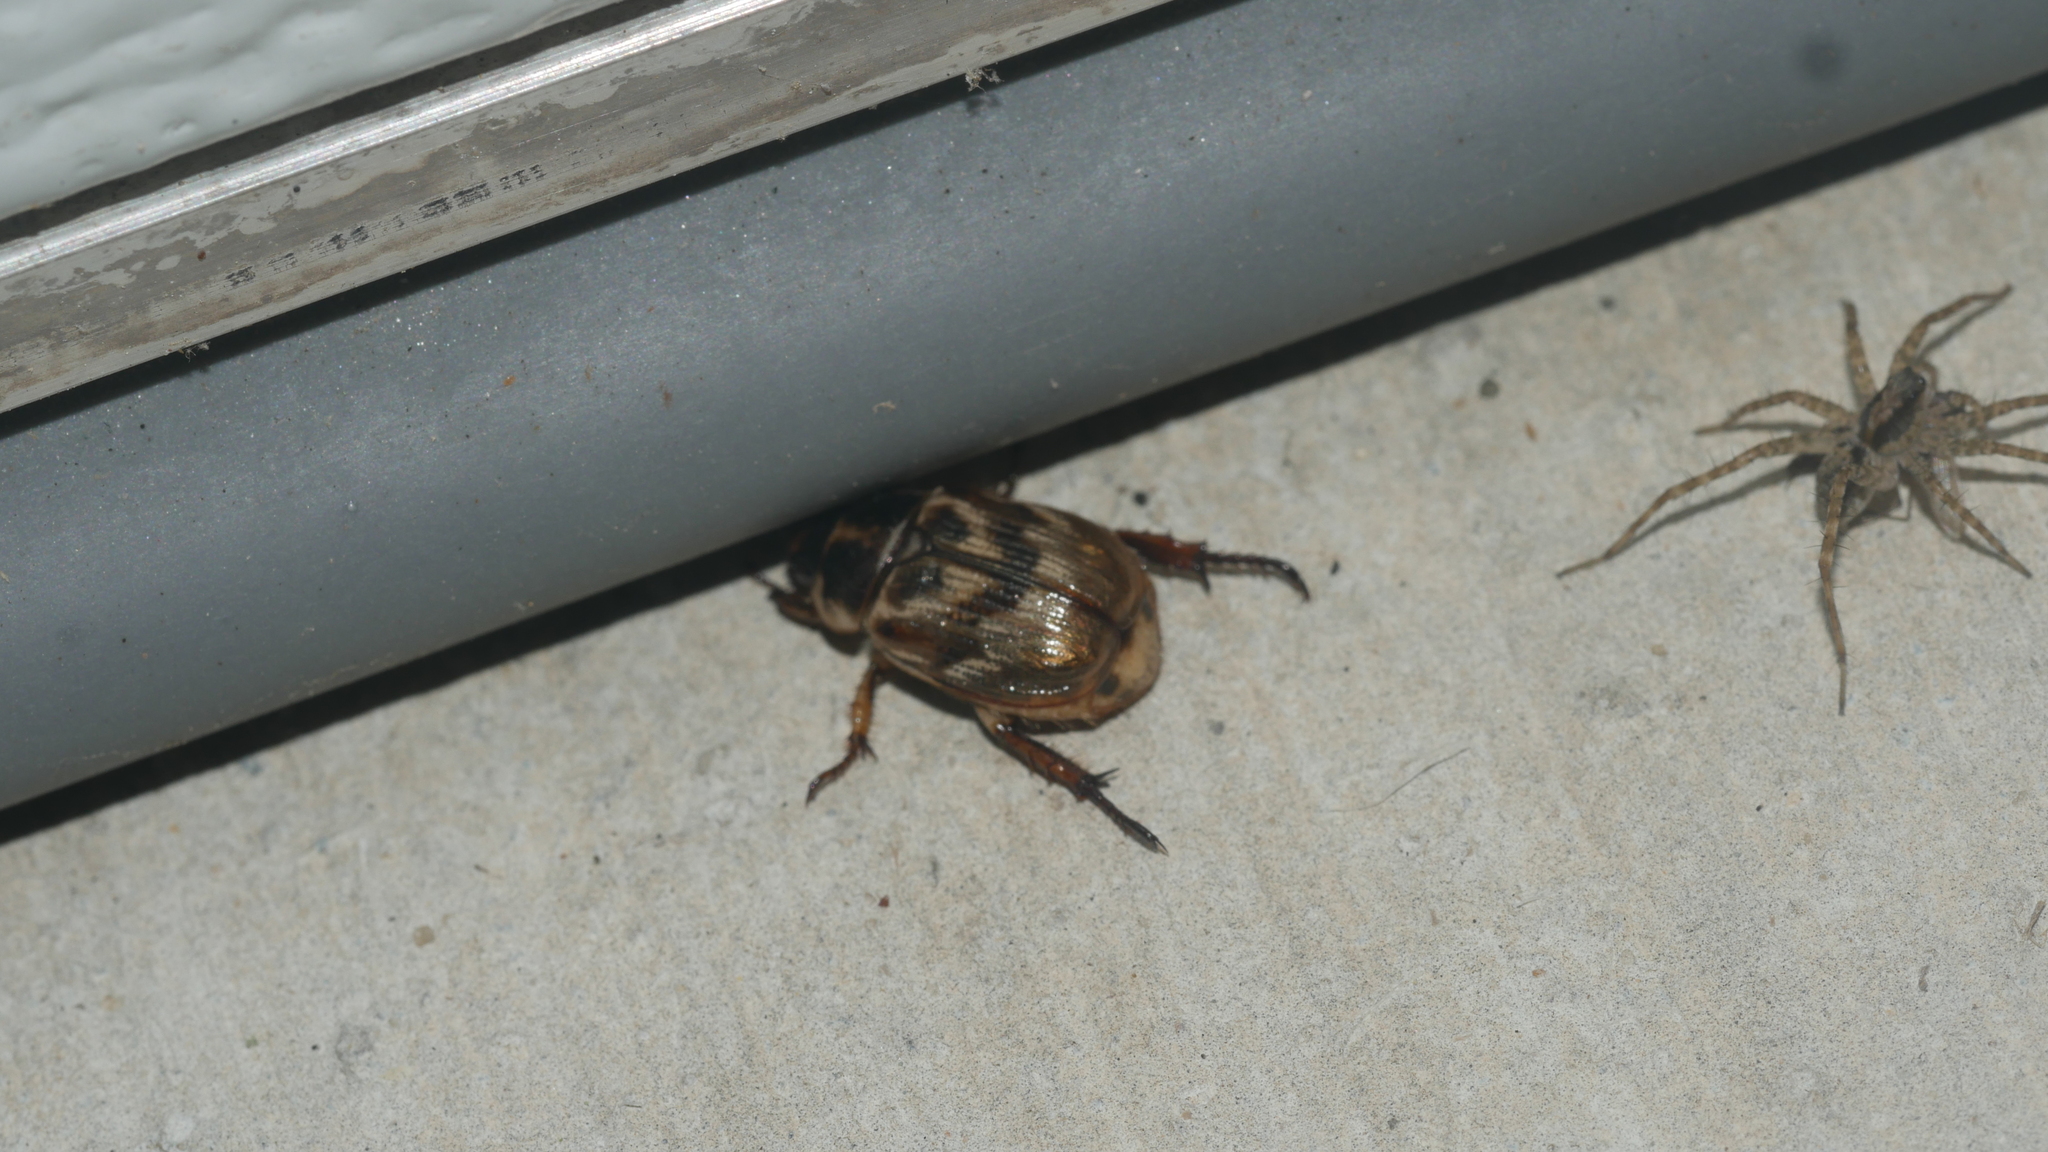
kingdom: Animalia
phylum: Arthropoda
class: Insecta
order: Coleoptera
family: Scarabaeidae
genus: Exomala
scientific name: Exomala orientalis
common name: Oriental beetle
